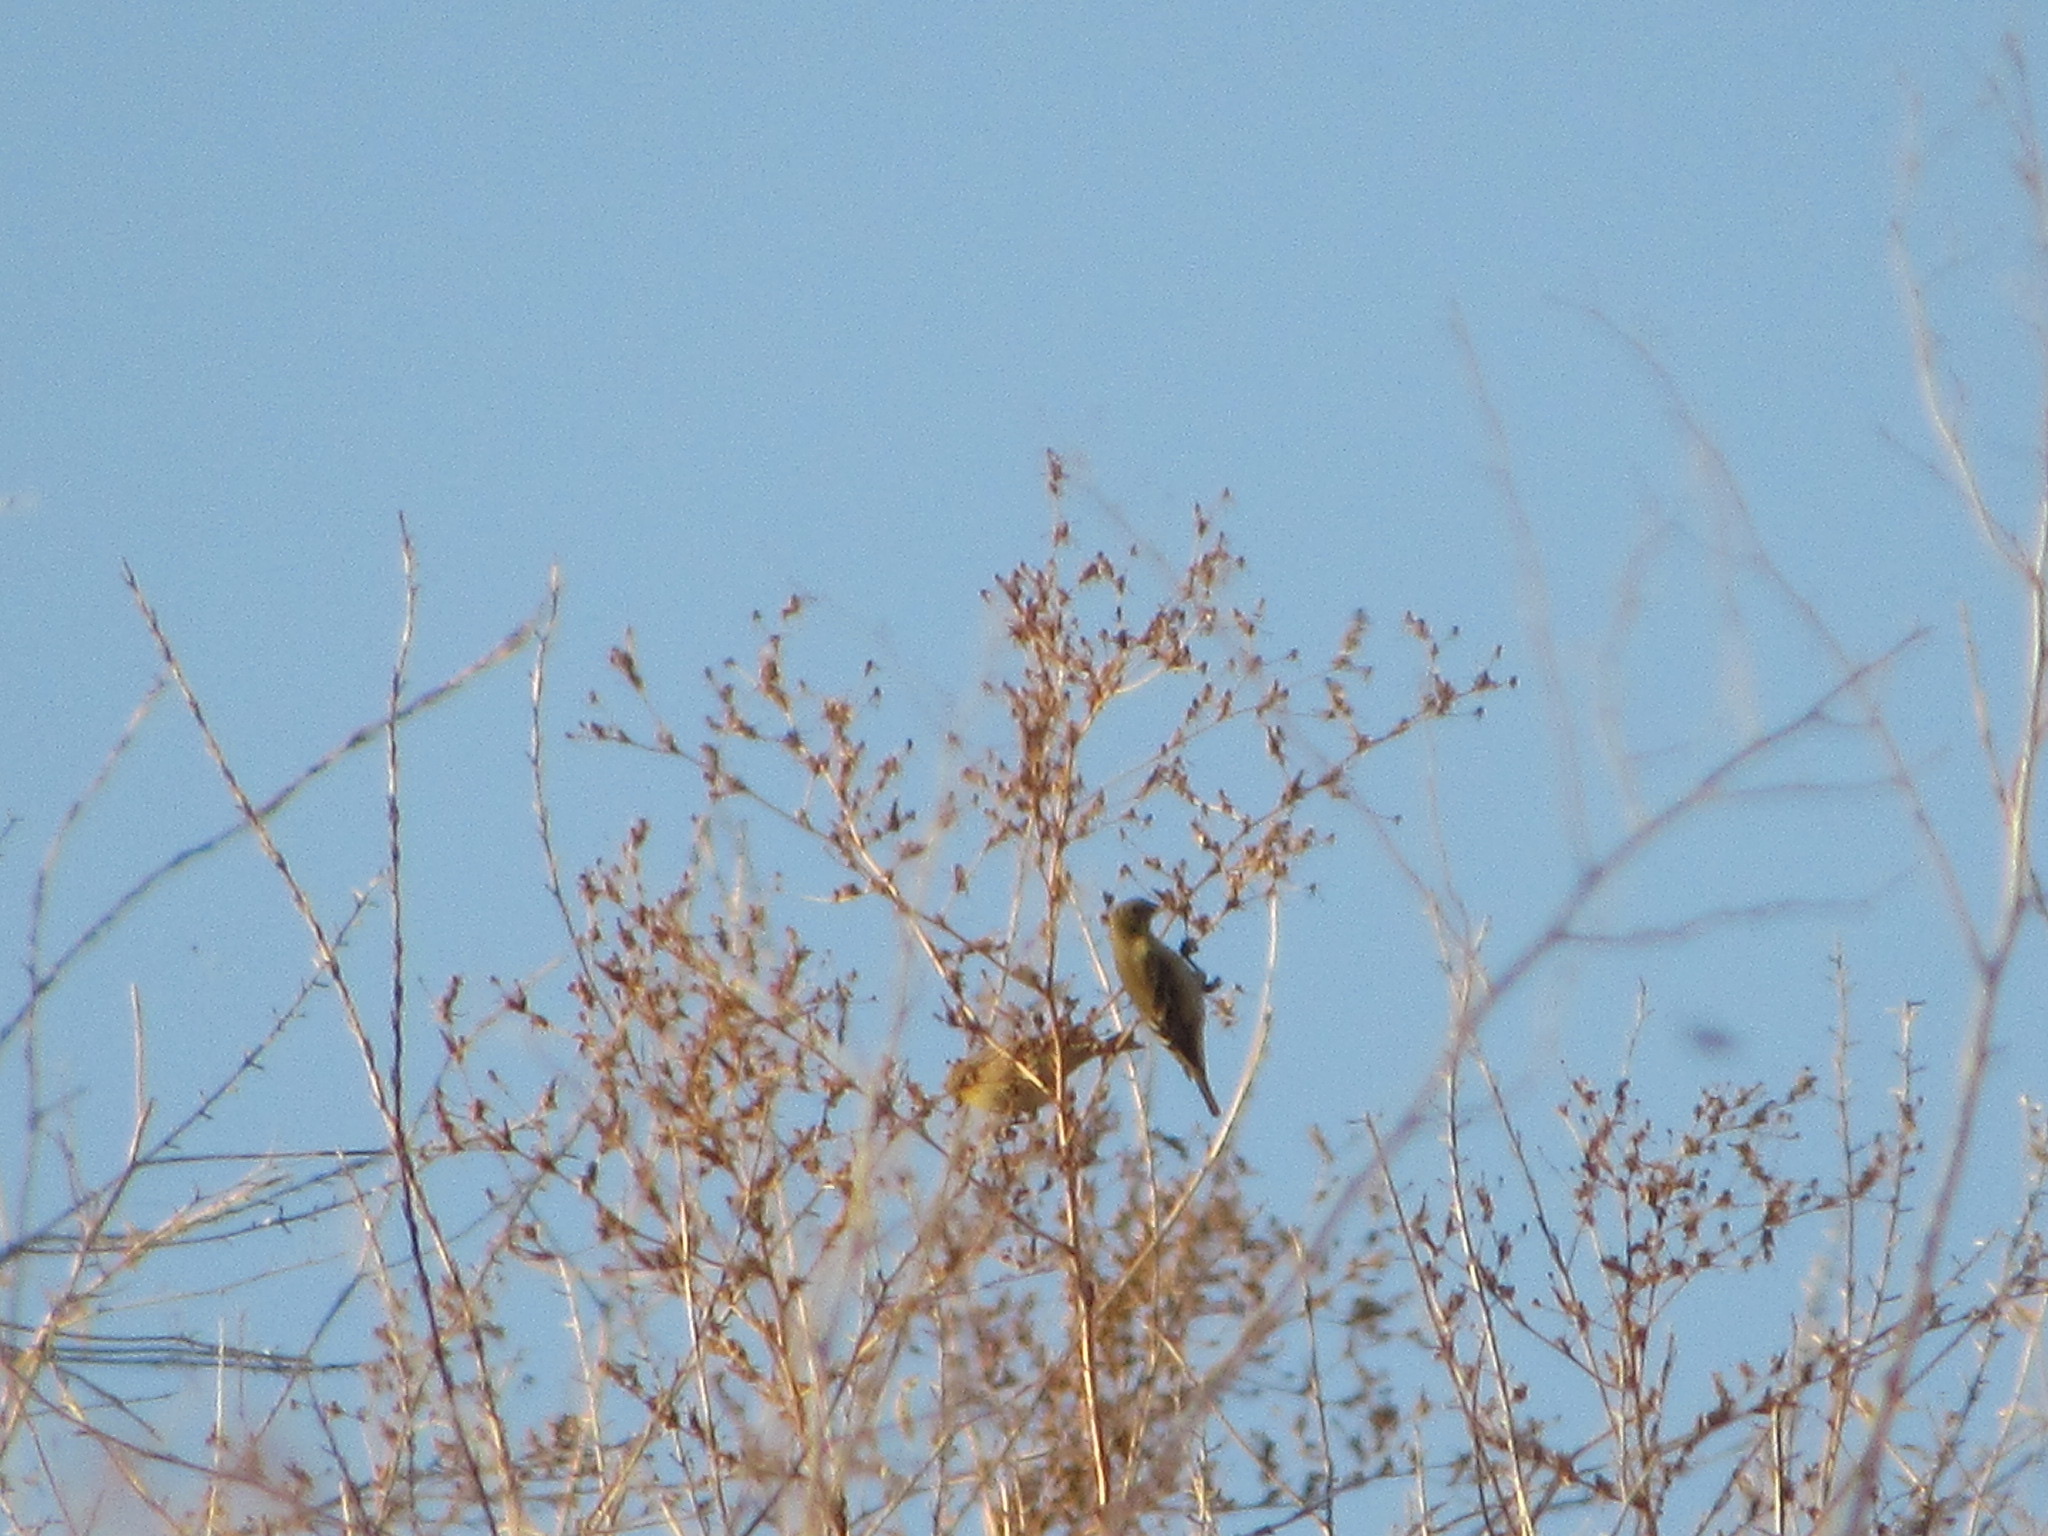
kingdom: Animalia
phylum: Chordata
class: Aves
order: Passeriformes
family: Fringillidae
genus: Spinus
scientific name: Spinus psaltria
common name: Lesser goldfinch
